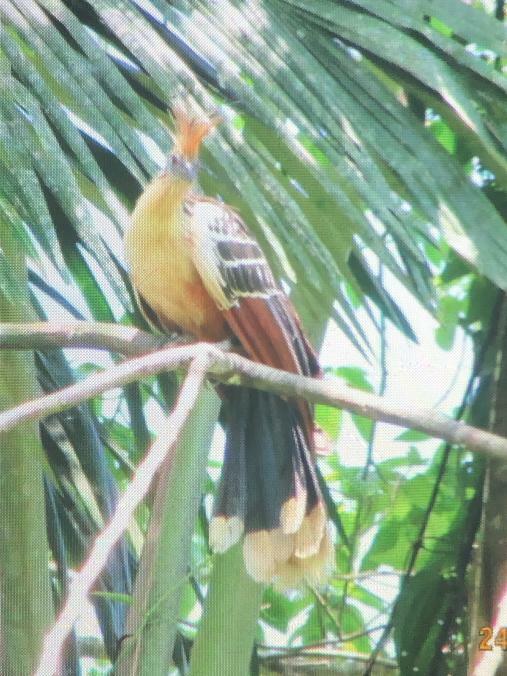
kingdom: Animalia
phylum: Chordata
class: Aves
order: Opisthocomiformes
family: Opisthocomidae
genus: Opisthocomus
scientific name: Opisthocomus hoazin
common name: Hoatzin
